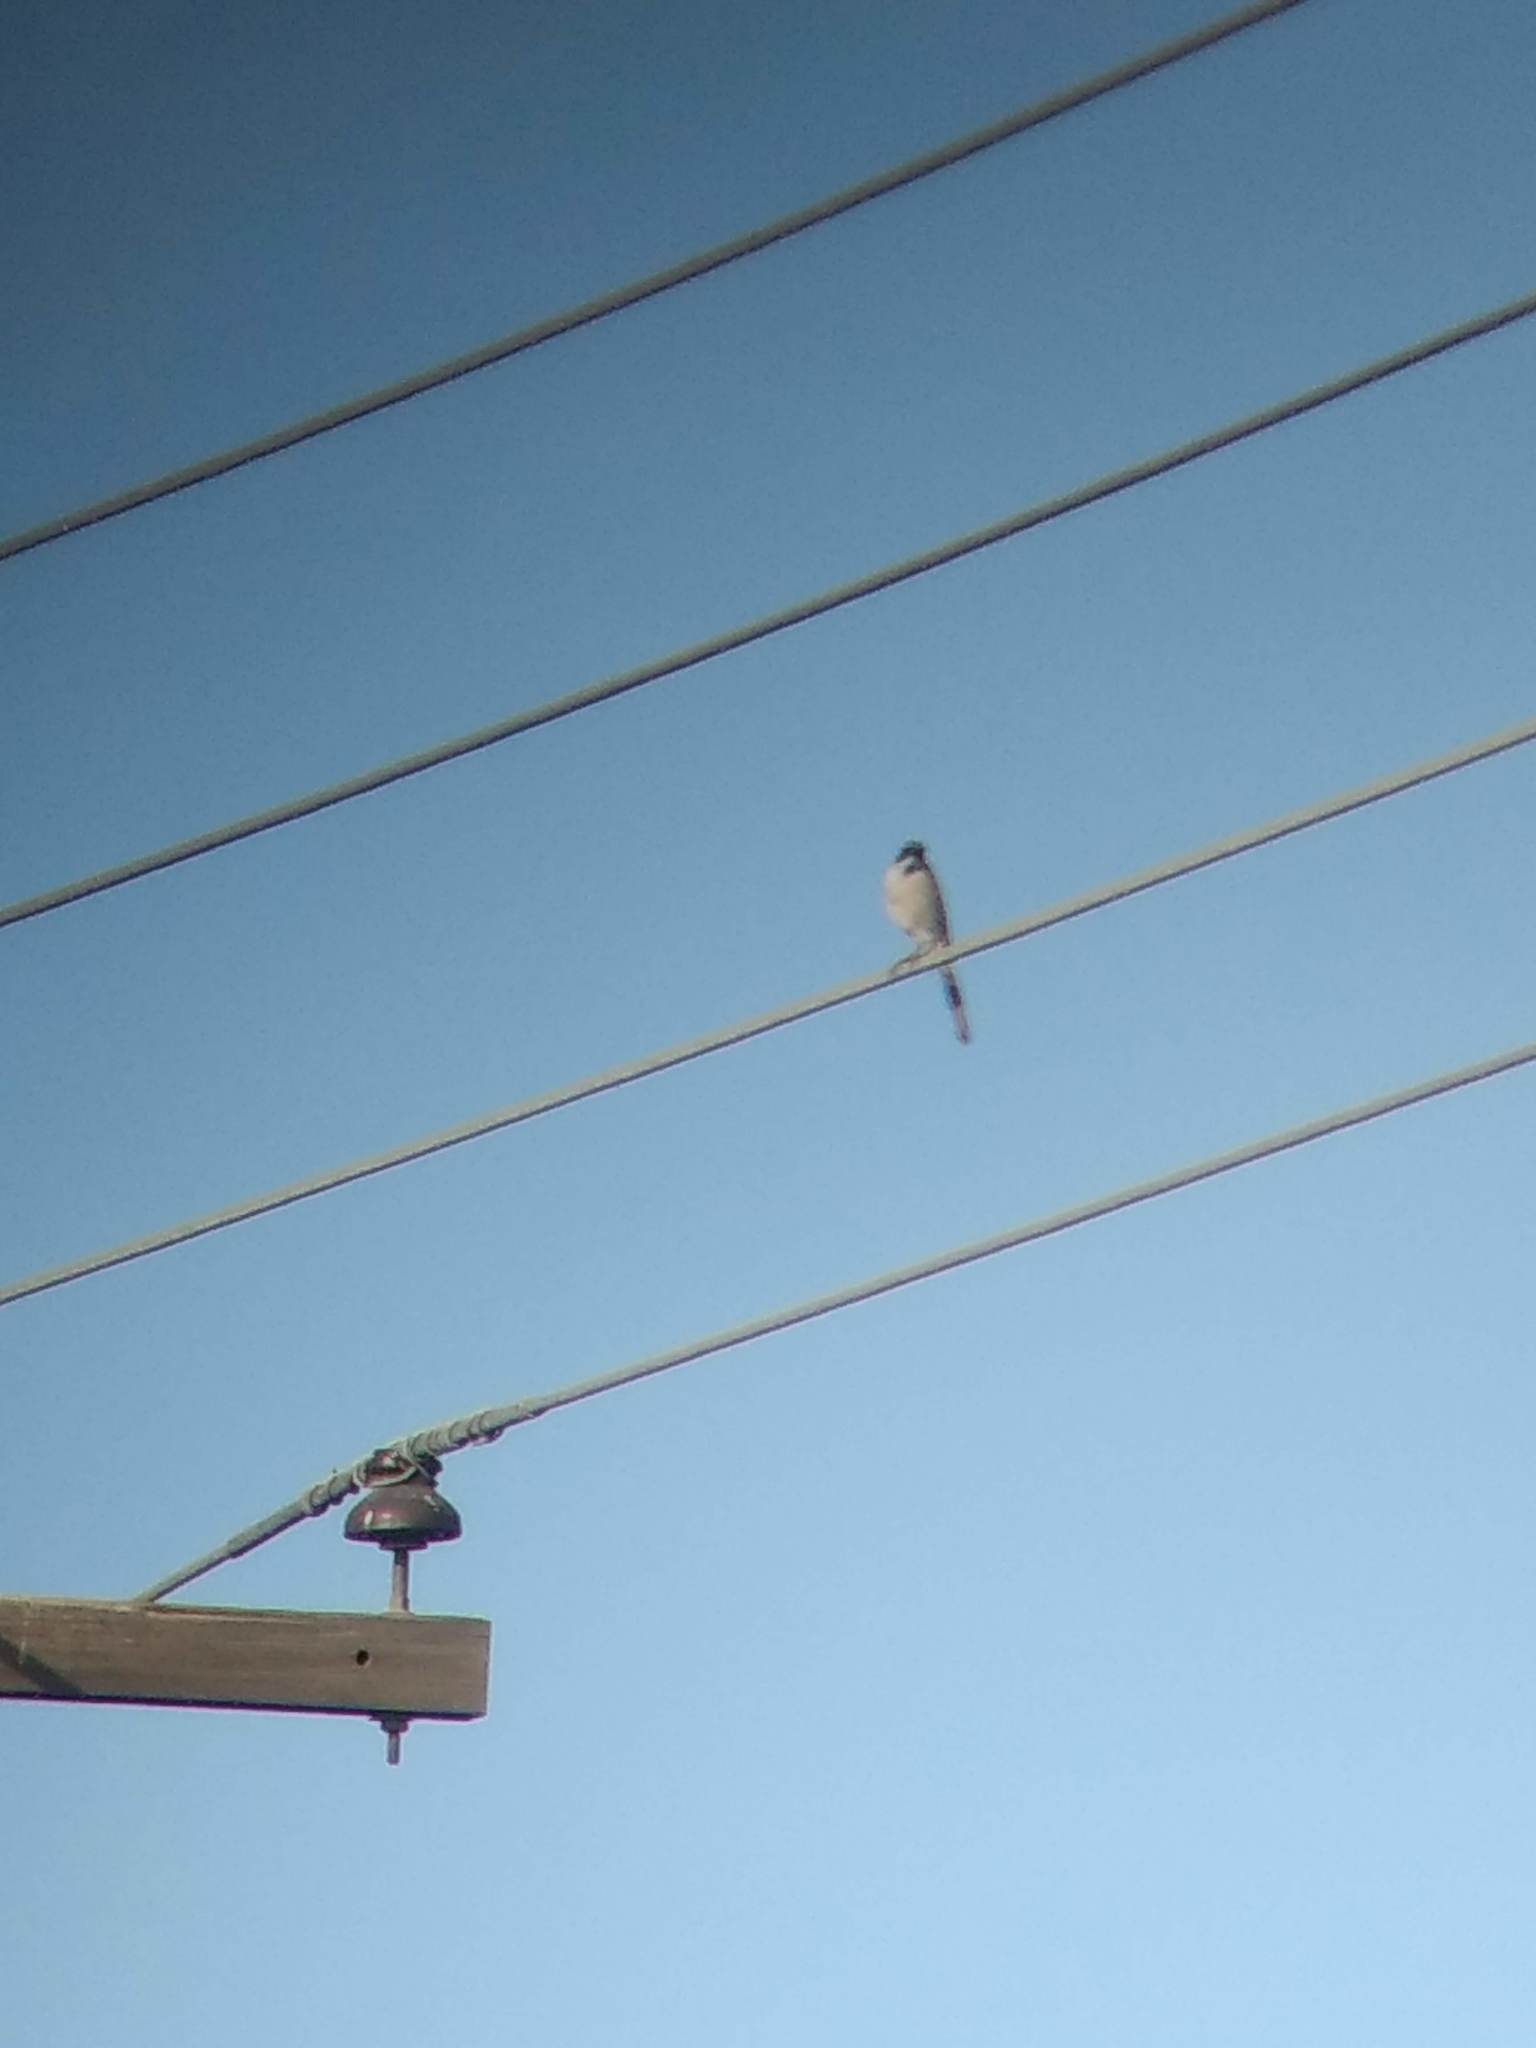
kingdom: Animalia
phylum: Chordata
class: Aves
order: Passeriformes
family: Corvidae
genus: Aphelocoma
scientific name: Aphelocoma californica
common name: California scrub-jay
